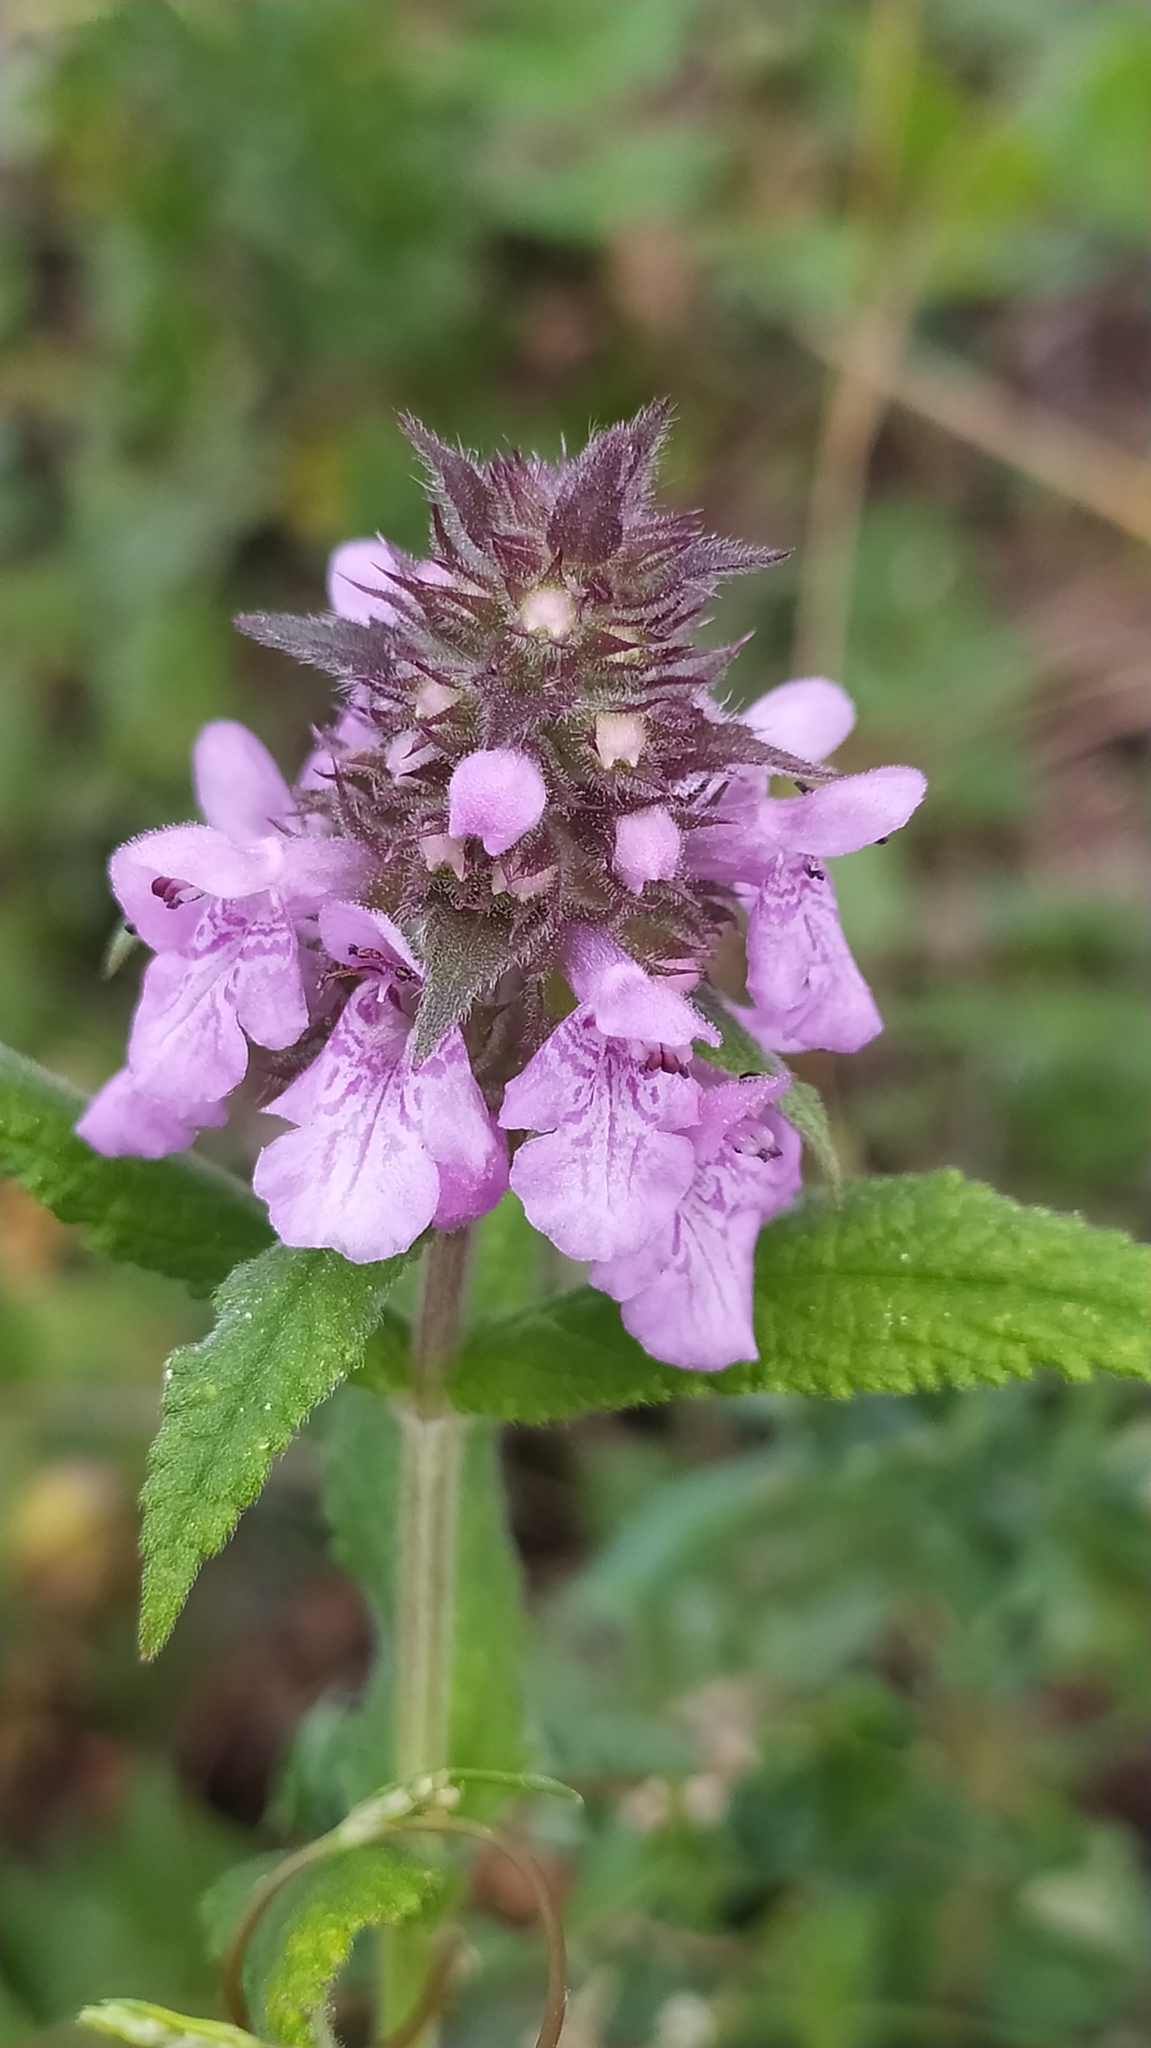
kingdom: Plantae
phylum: Tracheophyta
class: Magnoliopsida
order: Lamiales
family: Lamiaceae
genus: Stachys
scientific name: Stachys palustris
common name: Marsh woundwort
